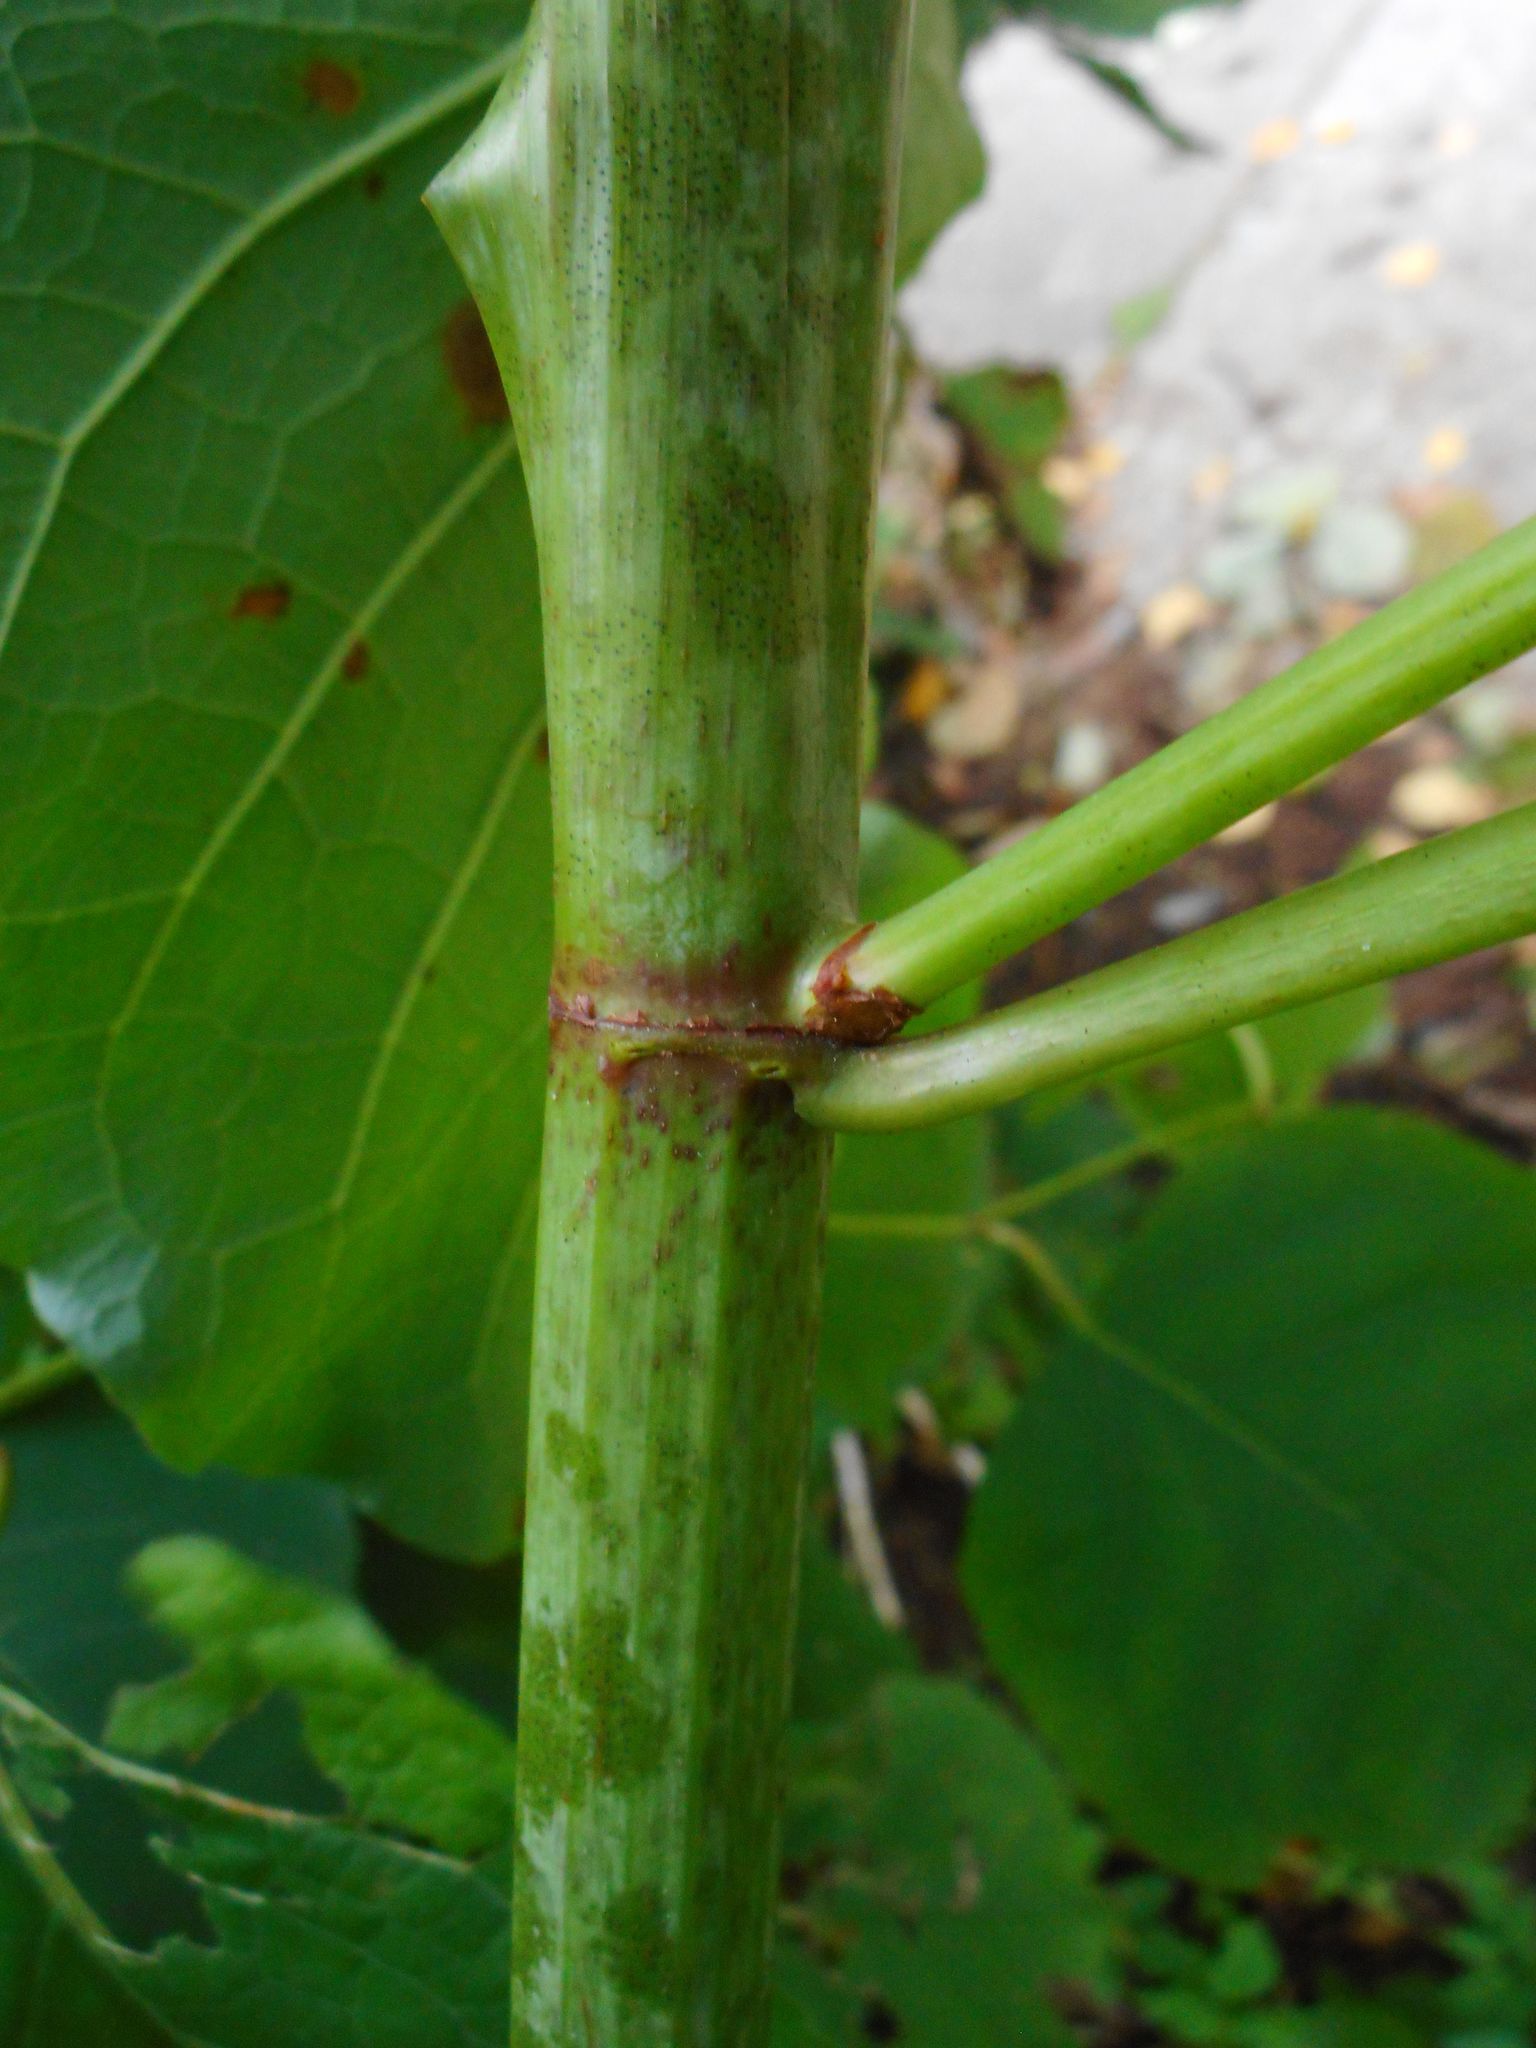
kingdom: Plantae
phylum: Tracheophyta
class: Magnoliopsida
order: Caryophyllales
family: Polygonaceae
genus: Reynoutria
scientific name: Reynoutria bohemica
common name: Bohemian knotweed
